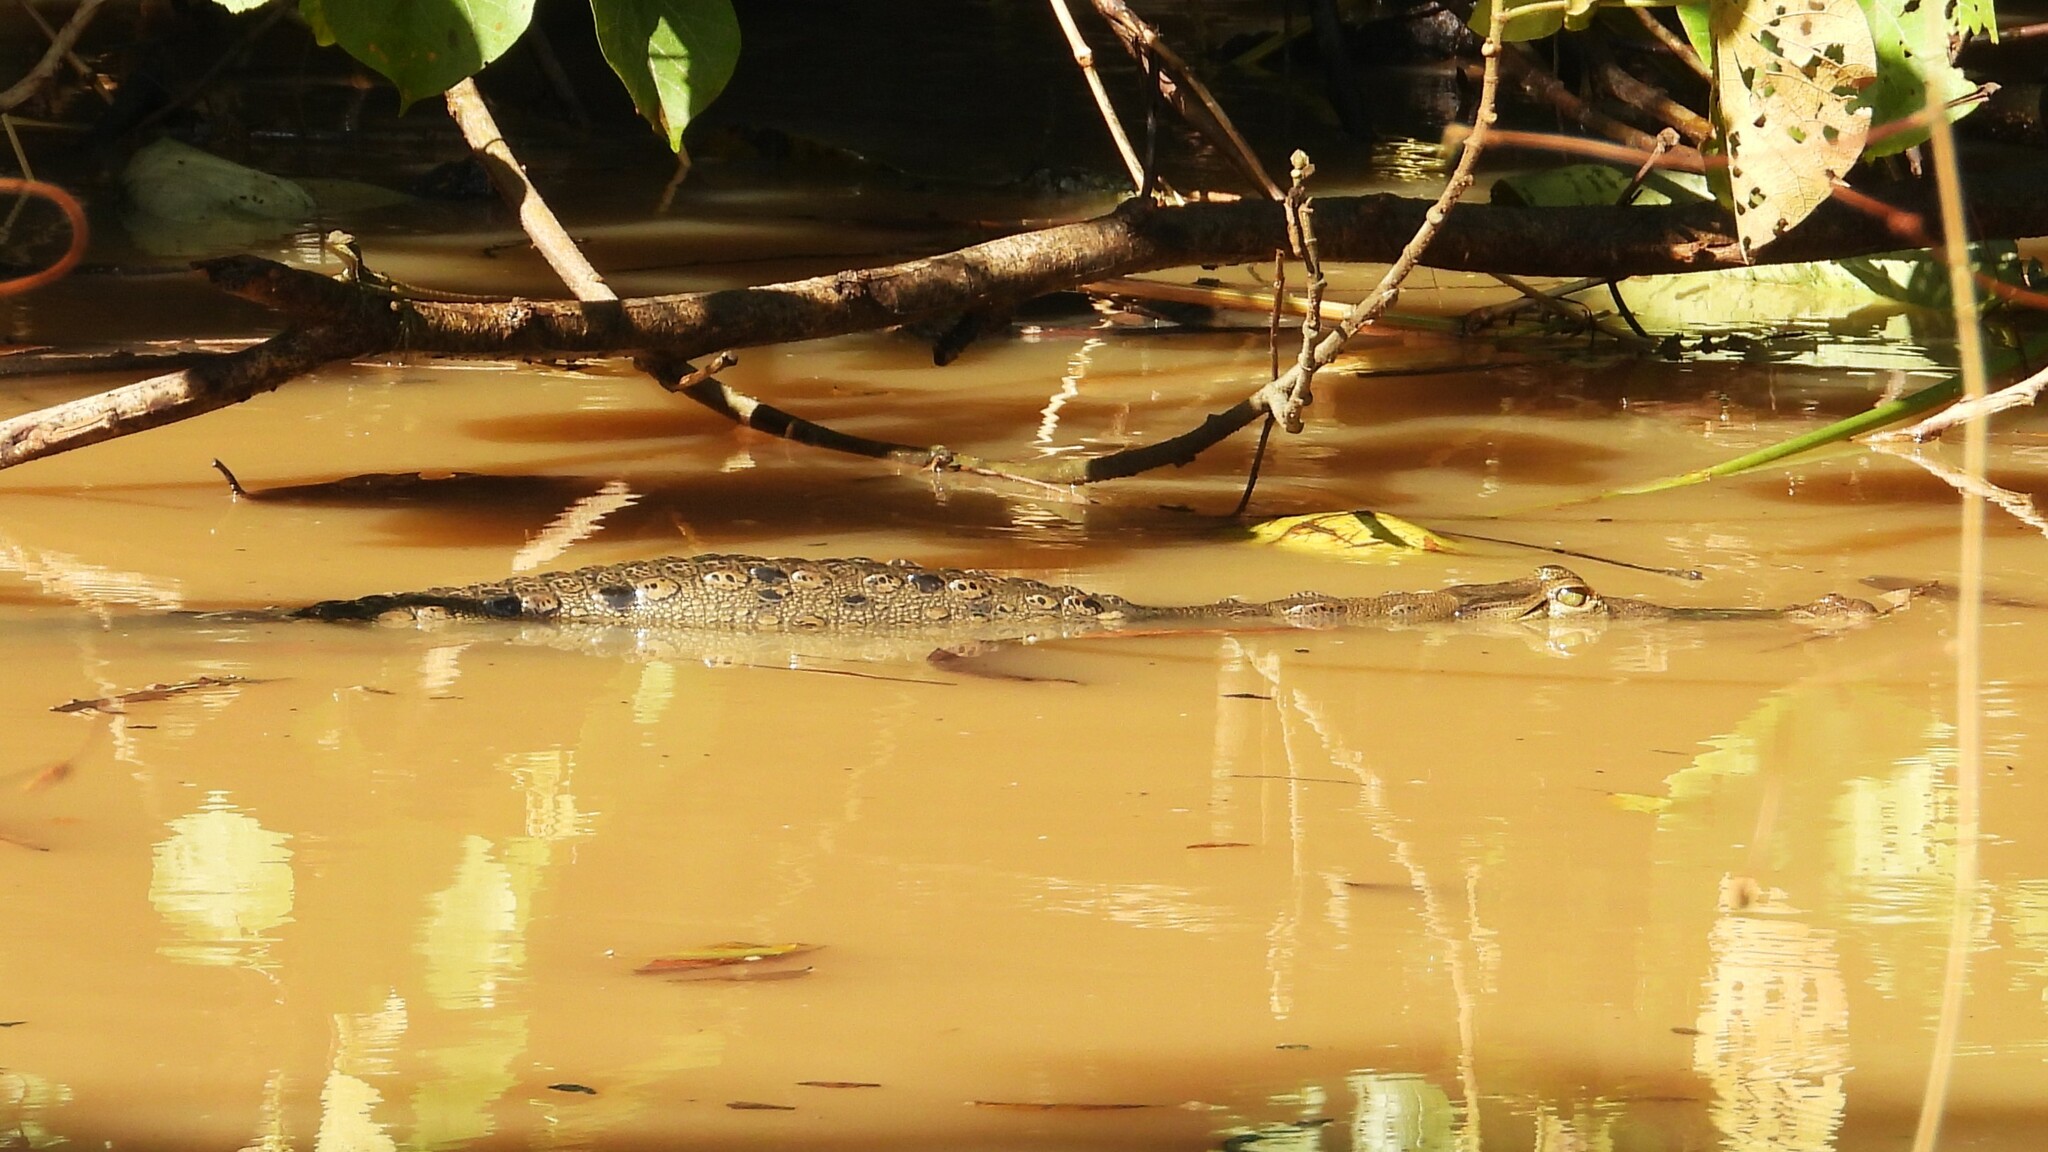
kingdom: Animalia
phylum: Chordata
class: Crocodylia
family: Crocodylidae
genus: Crocodylus
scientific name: Crocodylus acutus
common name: American crocodile
